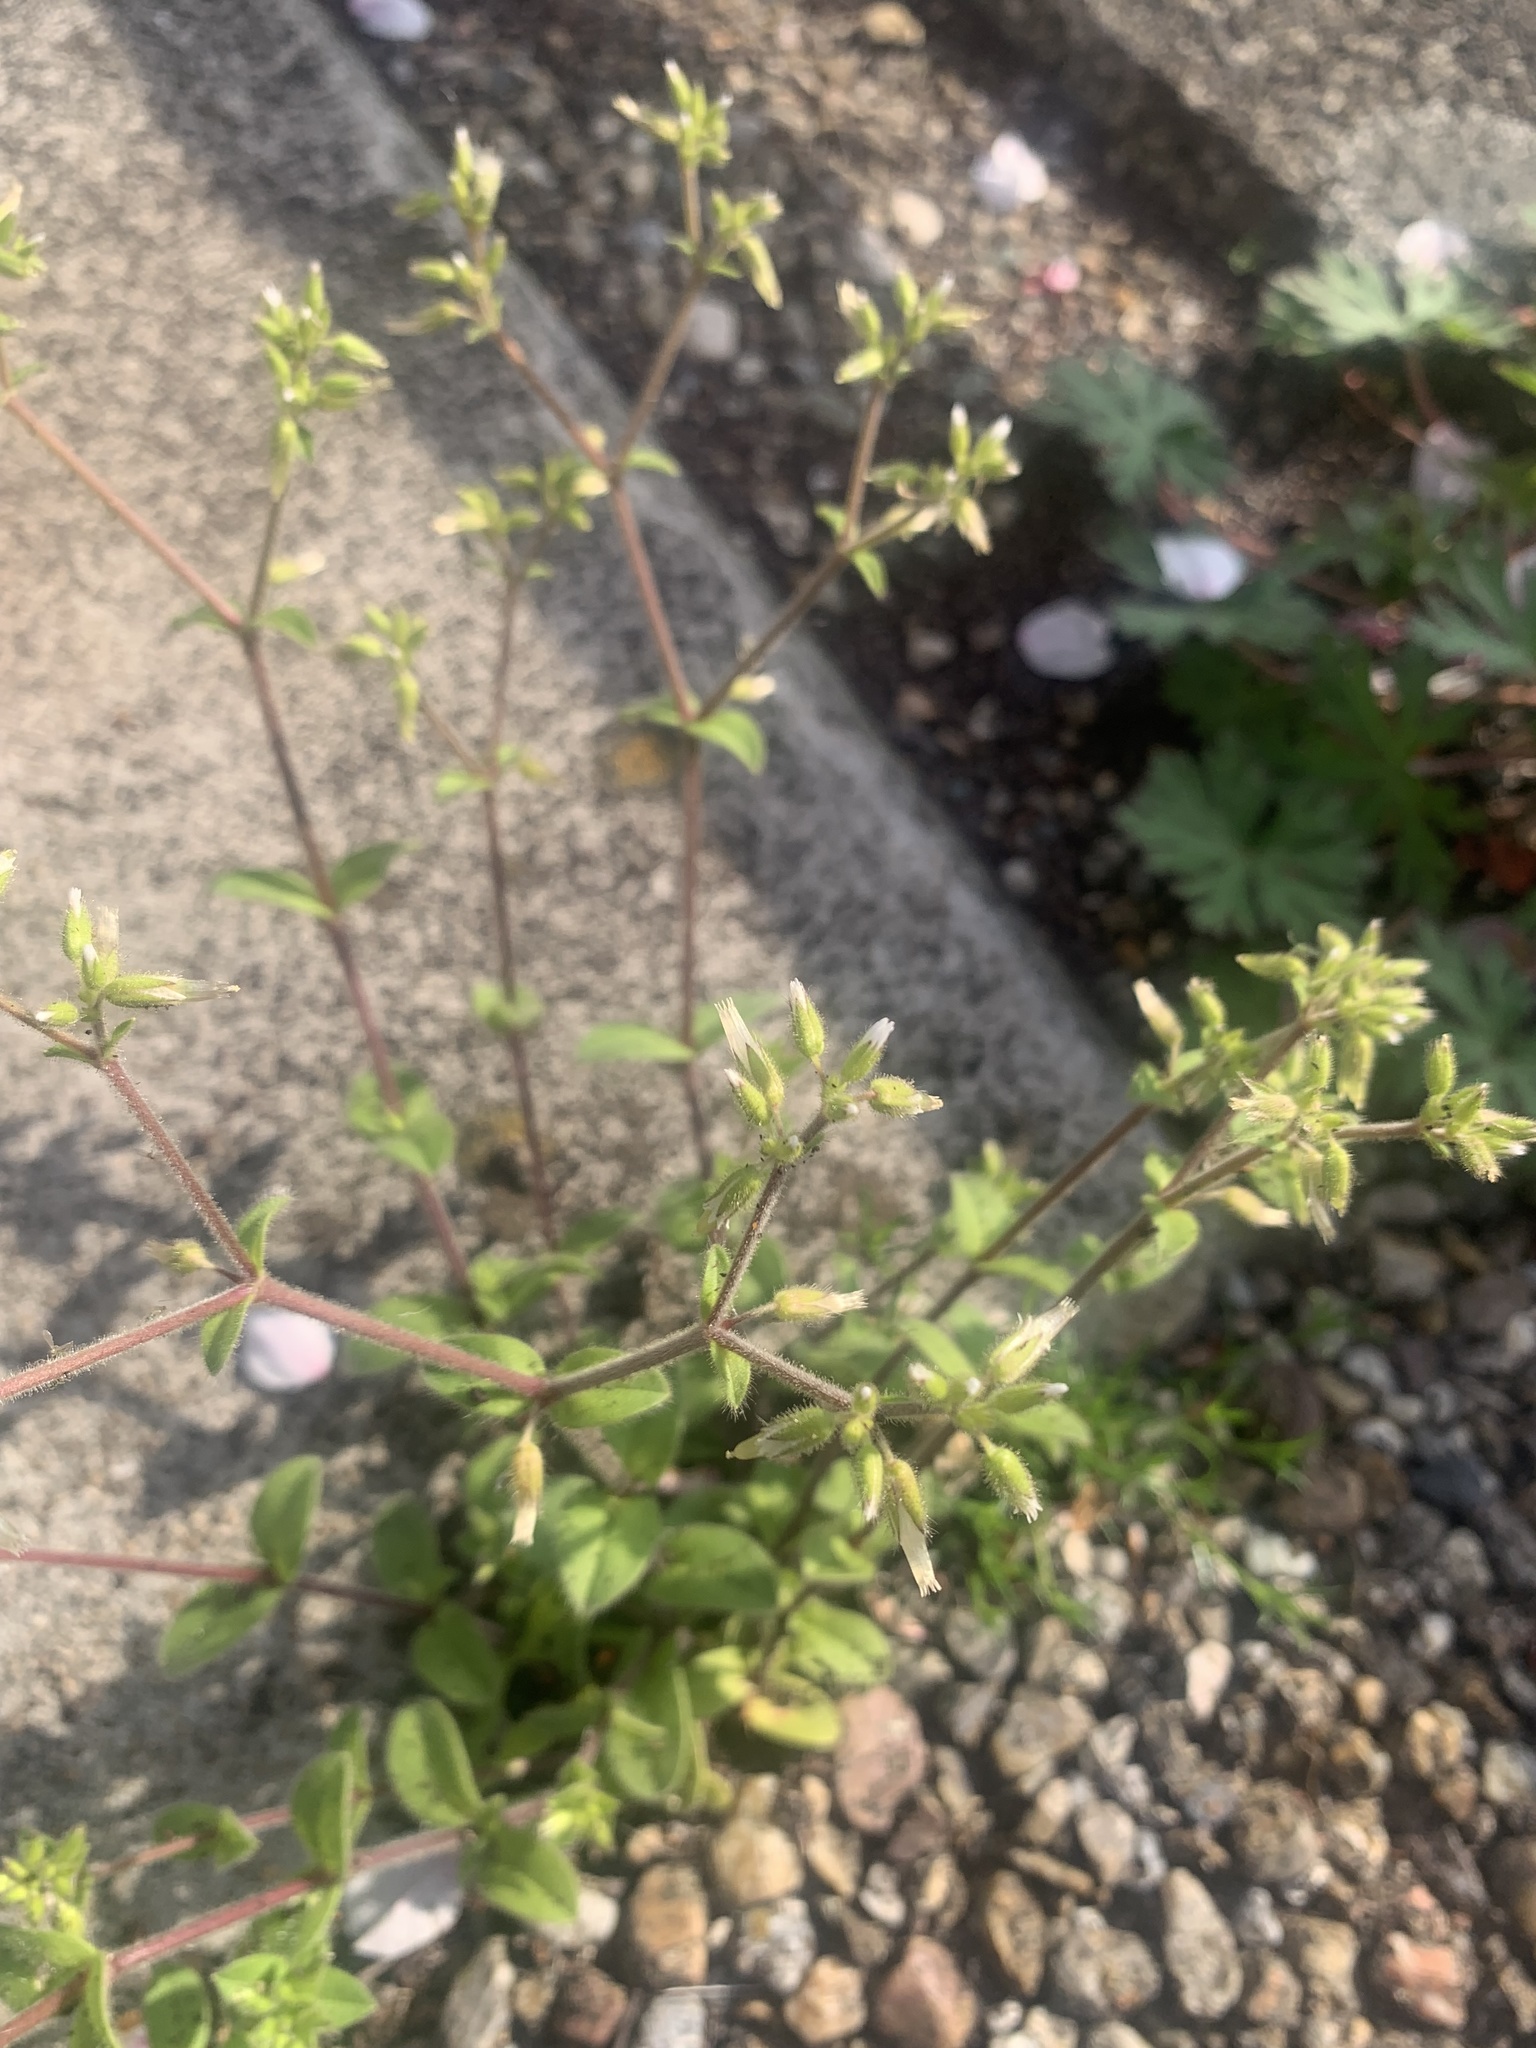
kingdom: Plantae
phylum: Tracheophyta
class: Magnoliopsida
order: Caryophyllales
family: Caryophyllaceae
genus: Cerastium
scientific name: Cerastium glomeratum
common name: Sticky chickweed
